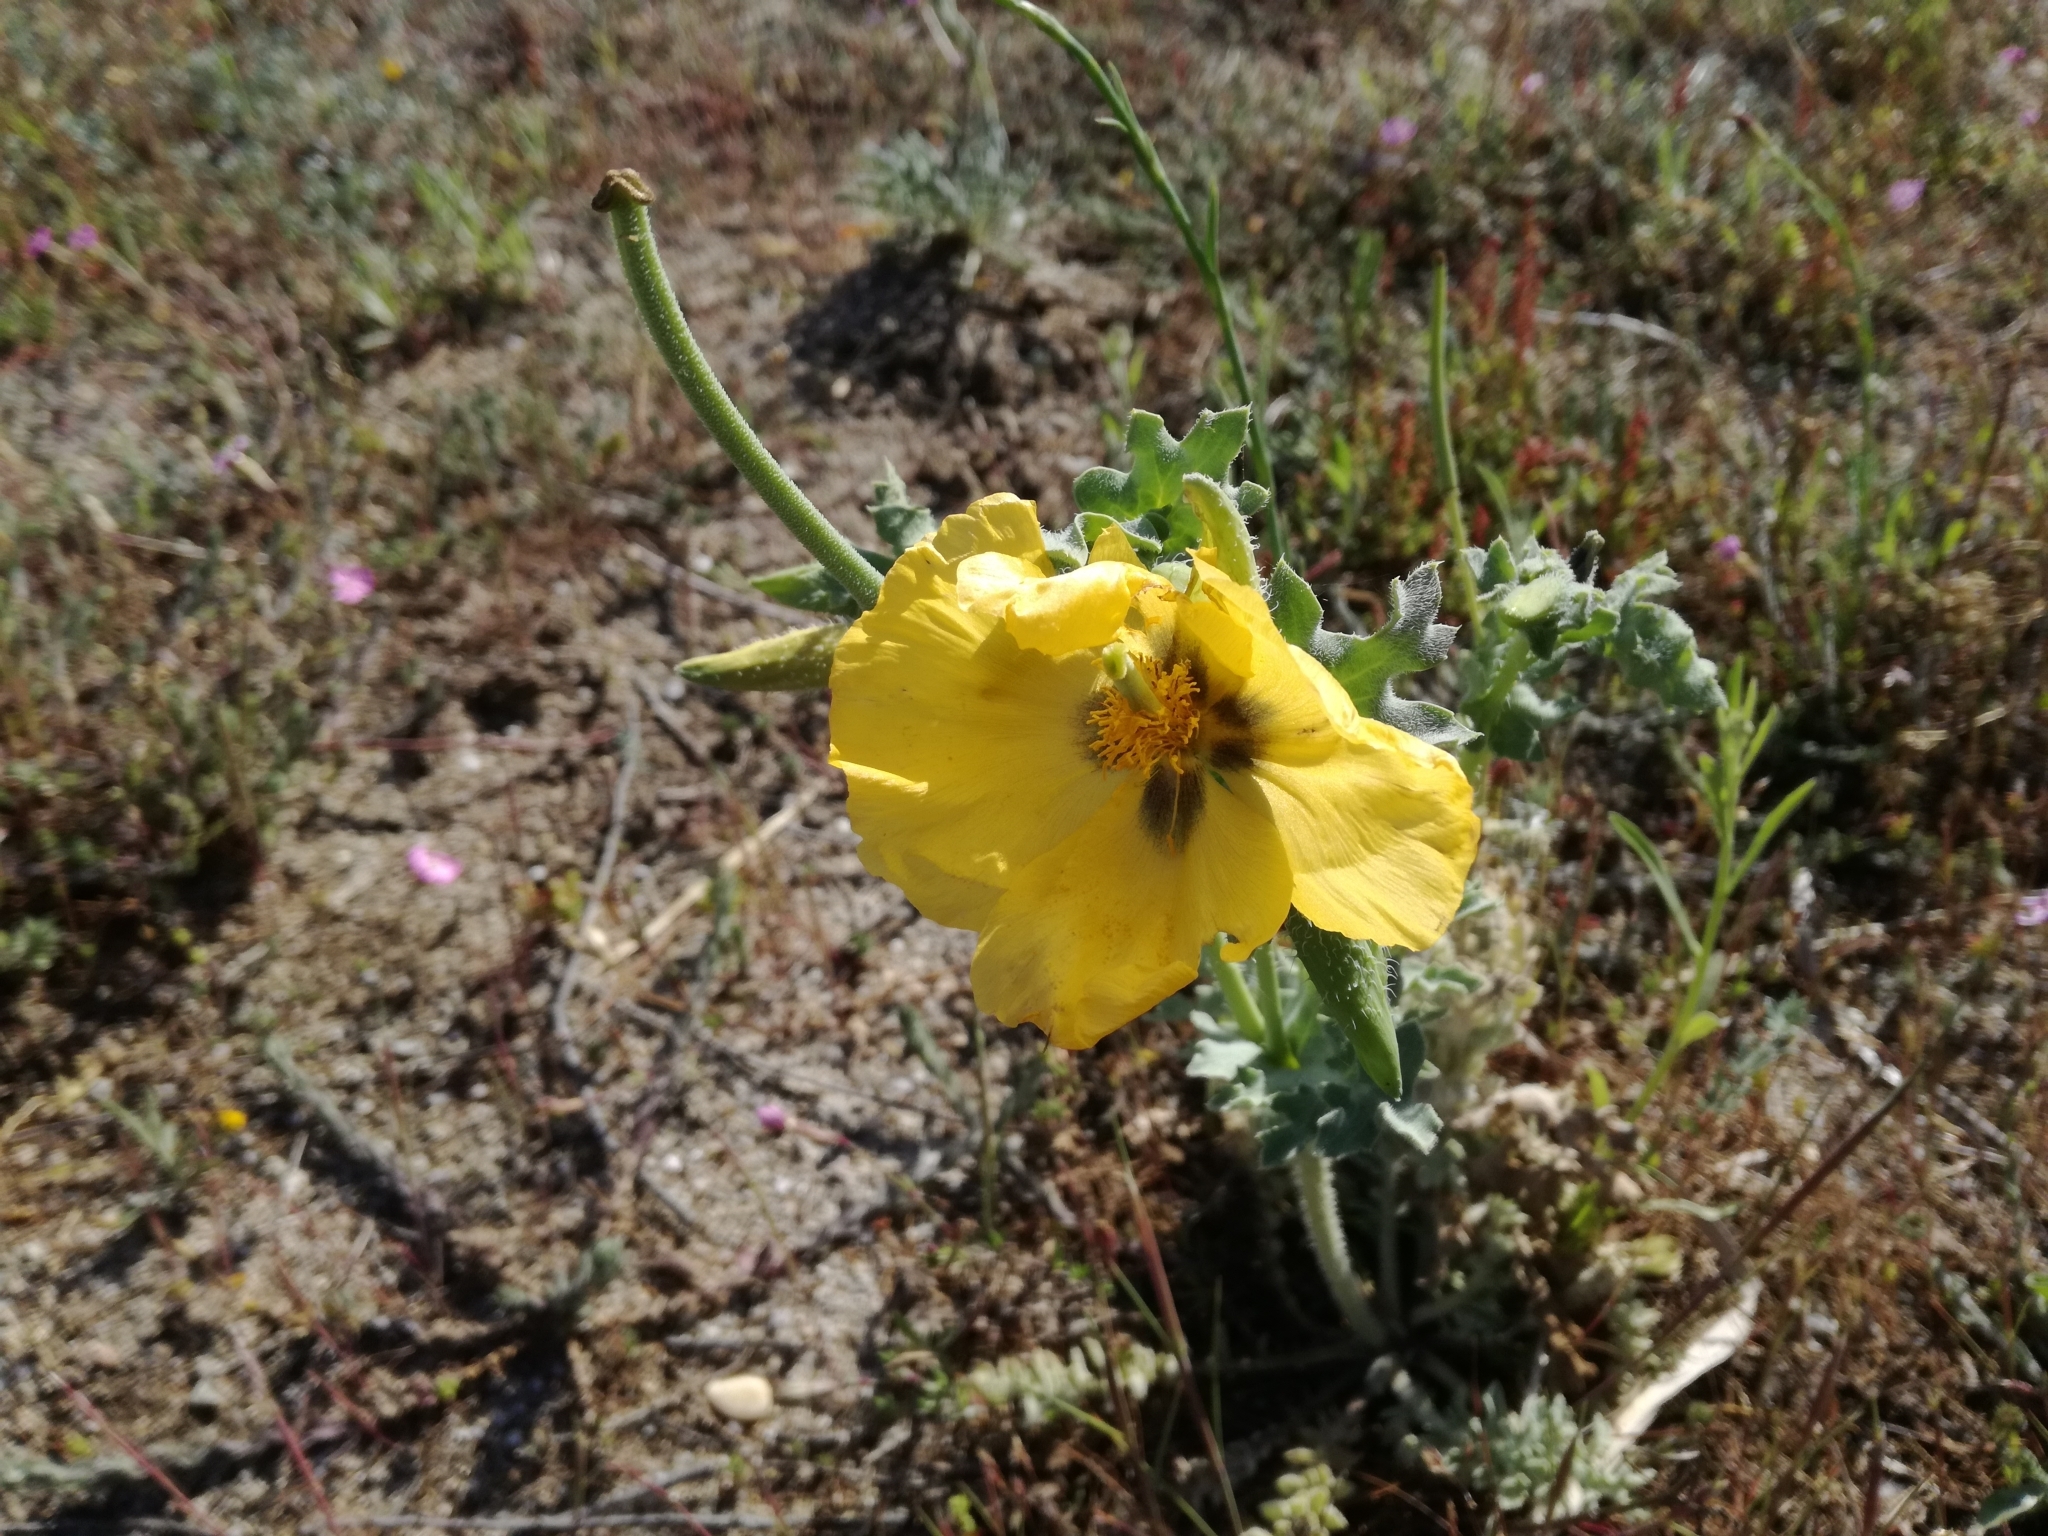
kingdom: Plantae
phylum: Tracheophyta
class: Magnoliopsida
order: Ranunculales
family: Papaveraceae
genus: Glaucium
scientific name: Glaucium flavum
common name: Yellow horned-poppy
